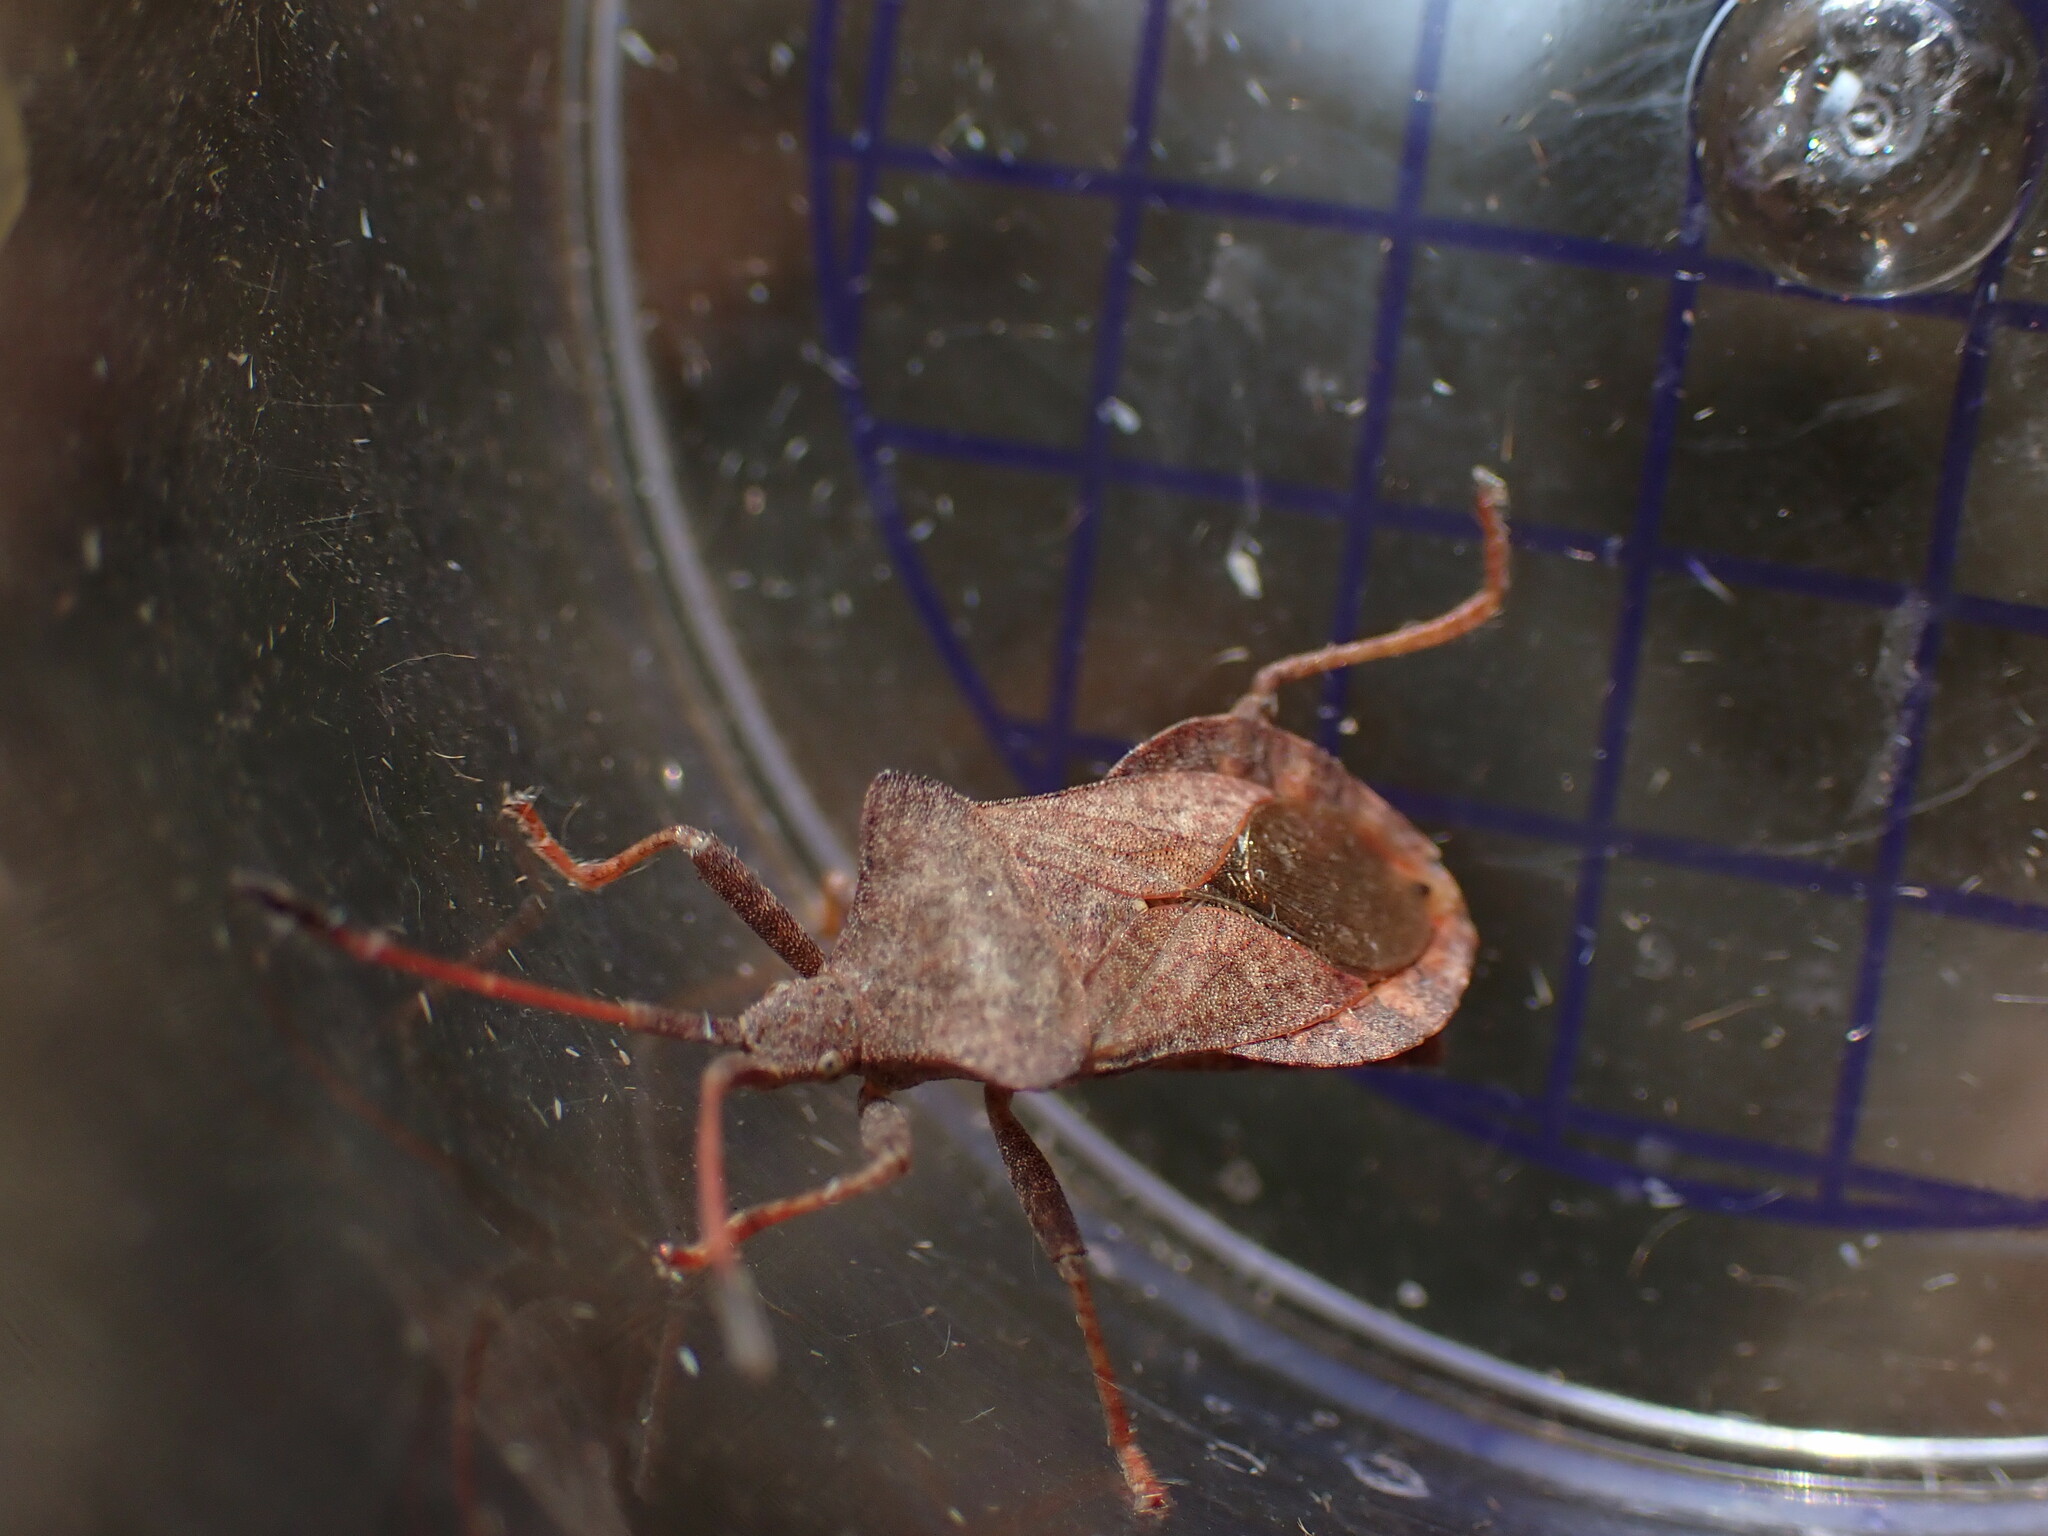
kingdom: Animalia
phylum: Arthropoda
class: Insecta
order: Hemiptera
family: Coreidae
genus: Coreus
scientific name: Coreus marginatus
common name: Dock bug
